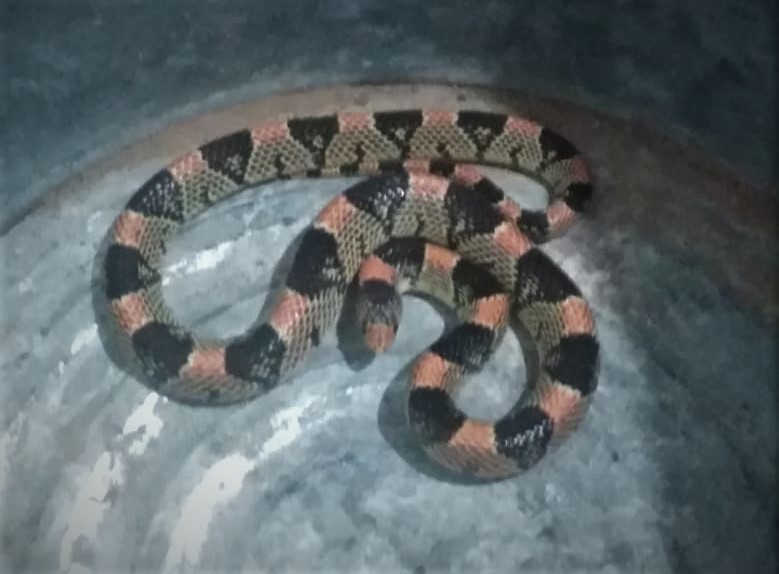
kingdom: Animalia
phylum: Chordata
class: Squamata
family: Colubridae
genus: Rhinocheilus
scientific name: Rhinocheilus lecontei
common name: Longnose snake
